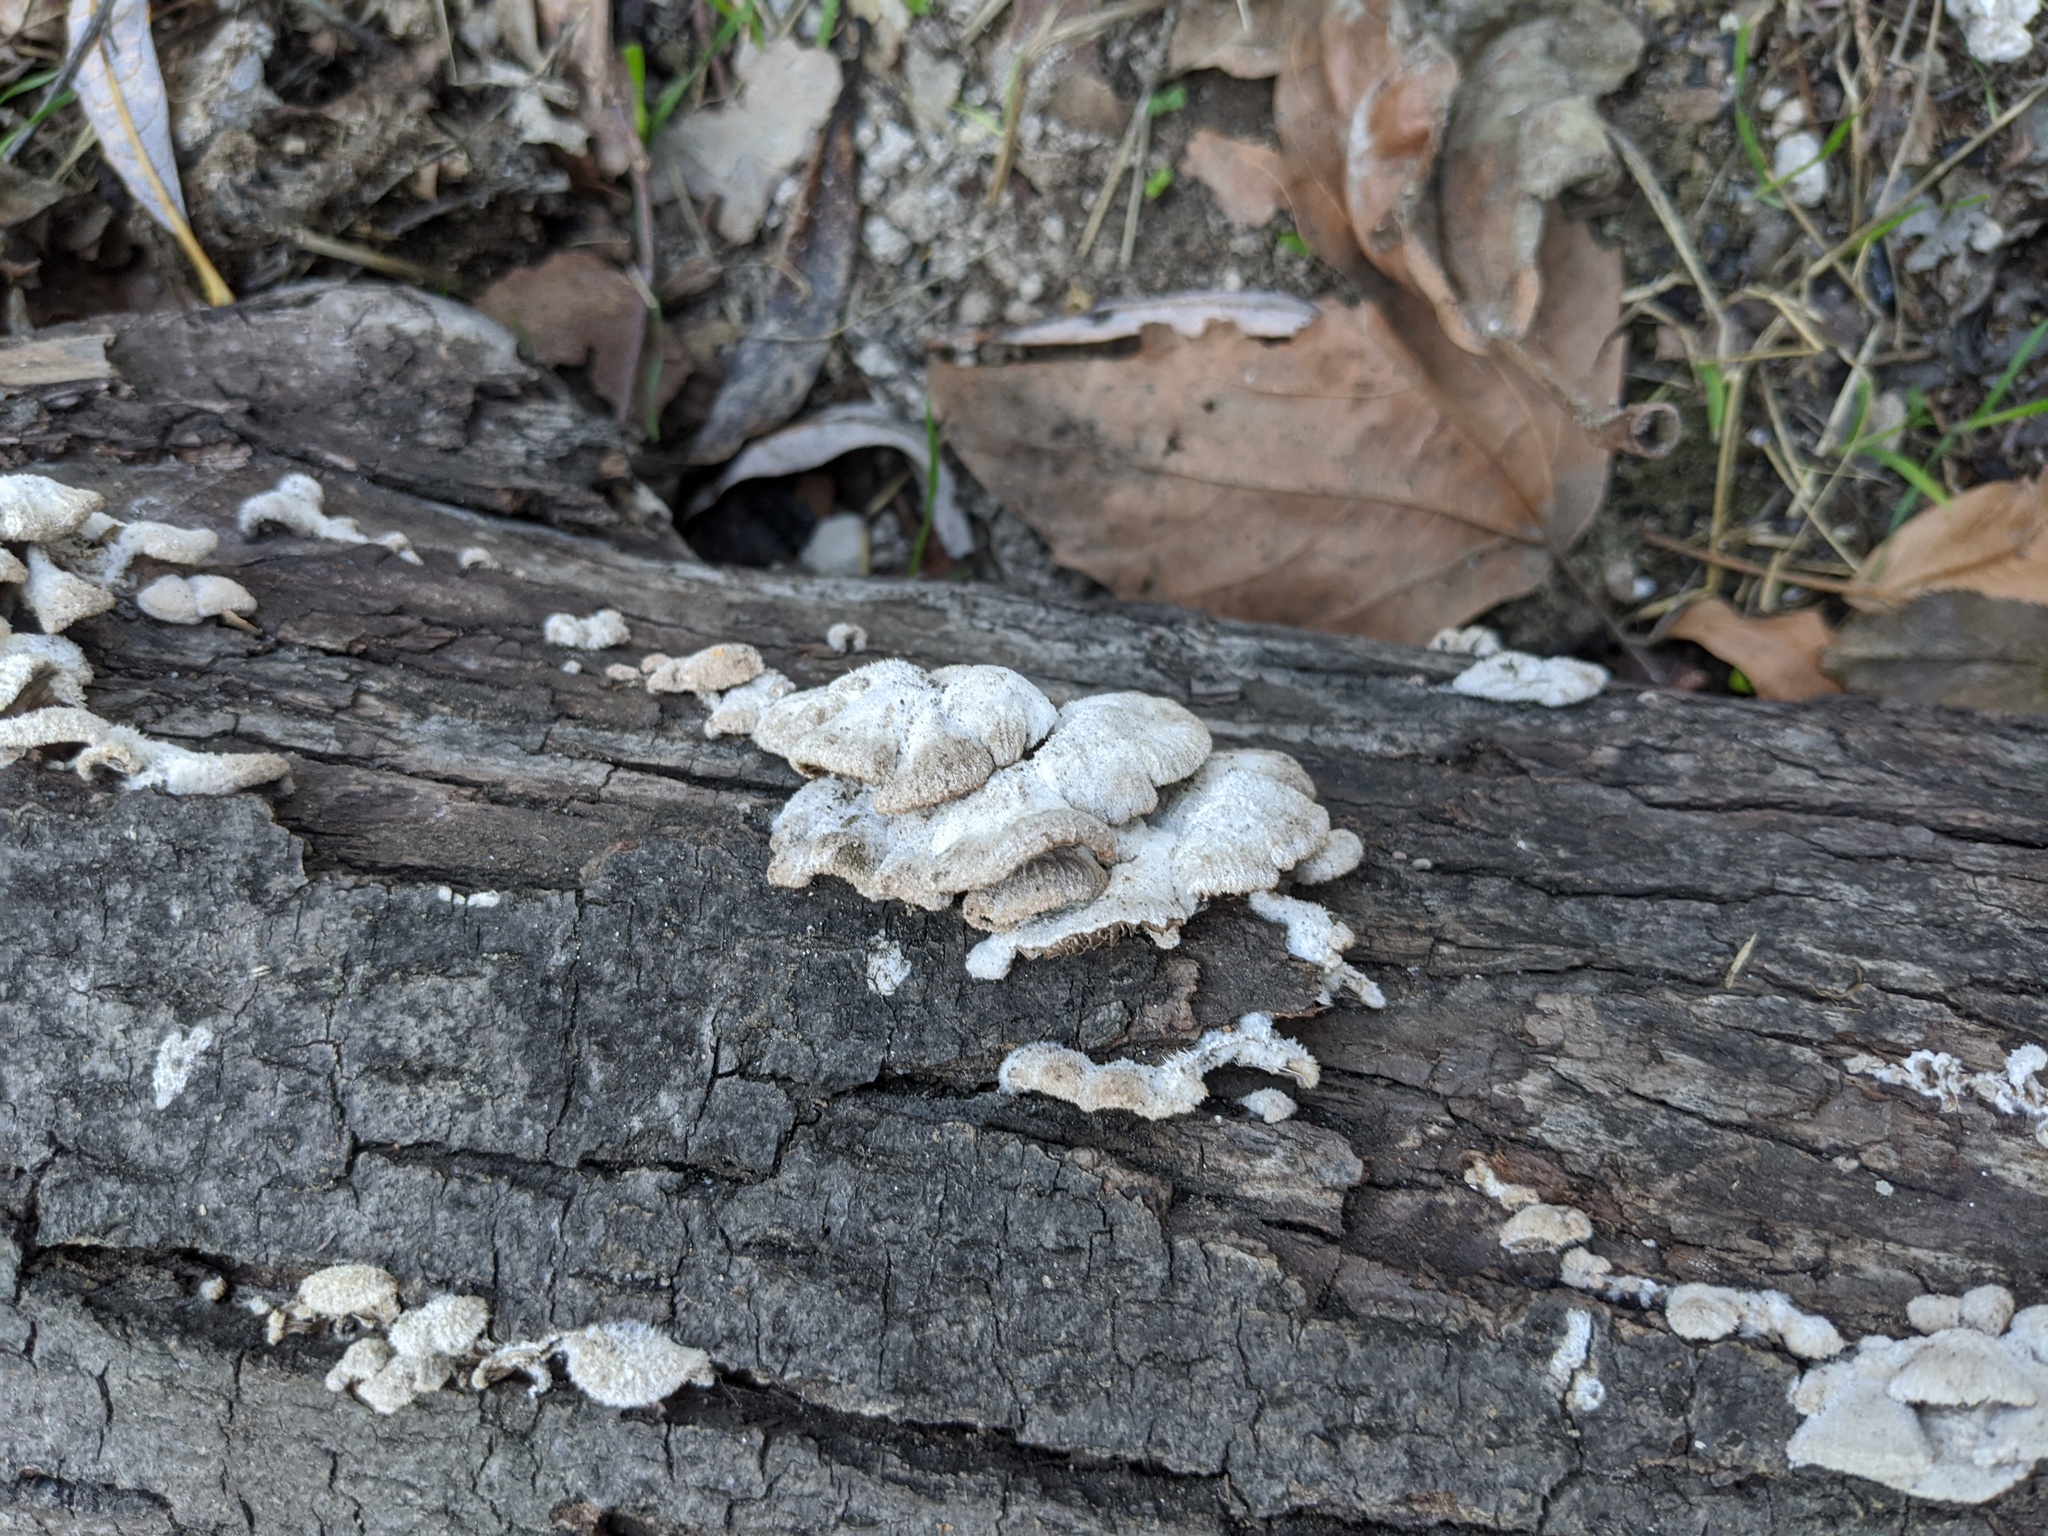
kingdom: Fungi
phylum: Basidiomycota
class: Agaricomycetes
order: Agaricales
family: Schizophyllaceae
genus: Schizophyllum
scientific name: Schizophyllum commune
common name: Common porecrust
